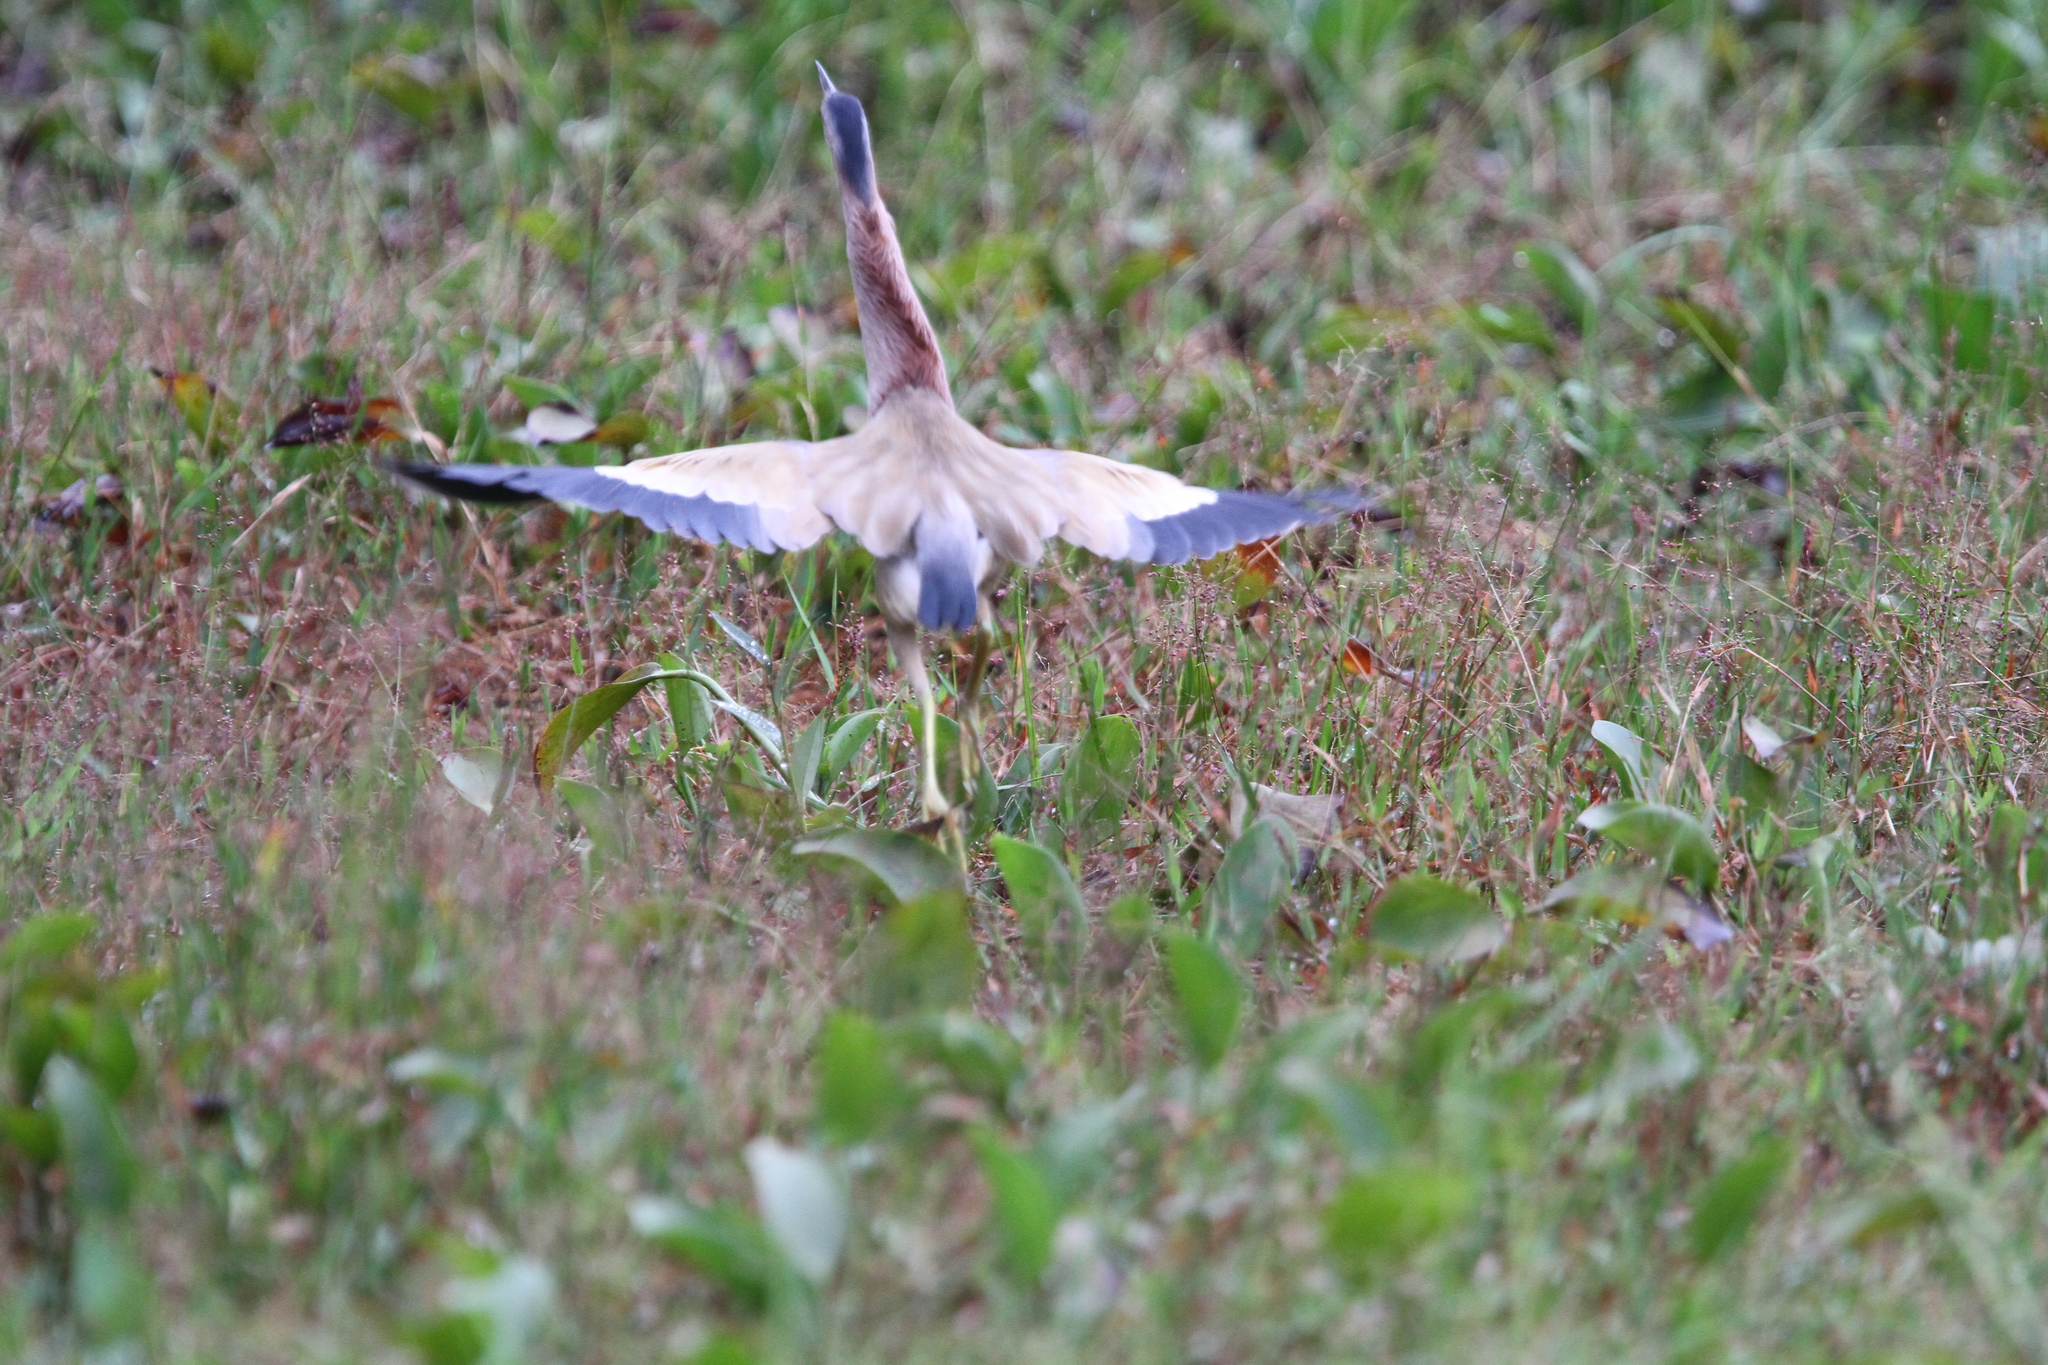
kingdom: Animalia
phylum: Chordata
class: Aves
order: Pelecaniformes
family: Ardeidae
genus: Ixobrychus
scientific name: Ixobrychus sinensis
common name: Yellow bittern
